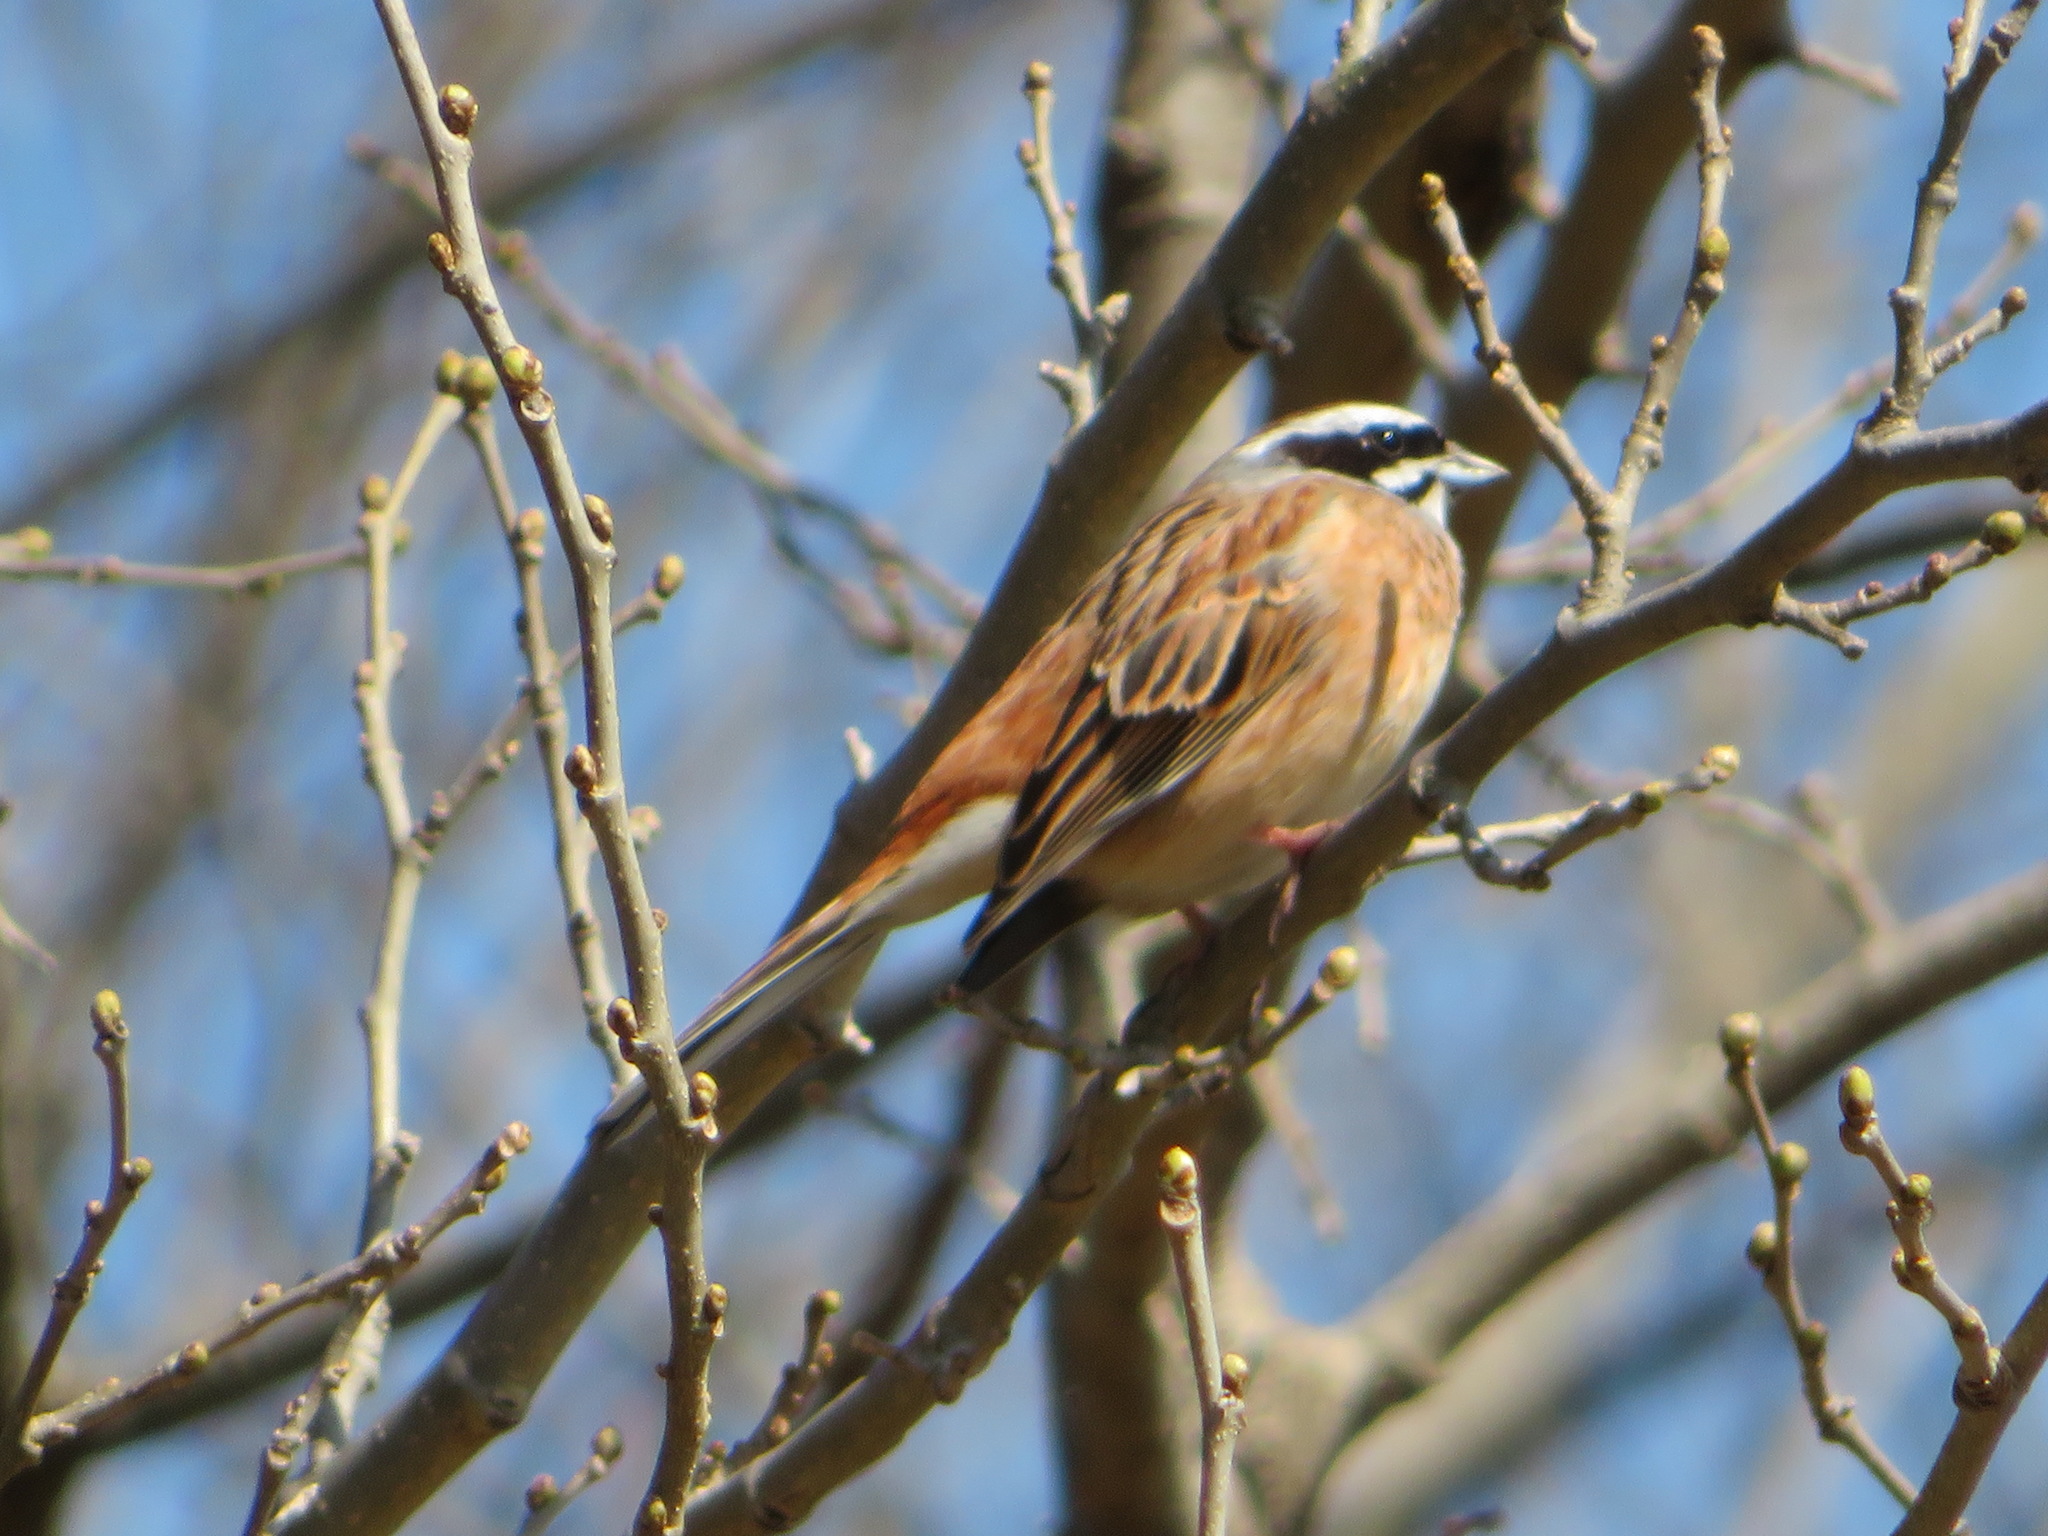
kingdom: Animalia
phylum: Chordata
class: Aves
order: Passeriformes
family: Emberizidae
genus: Emberiza
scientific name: Emberiza cioides
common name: Meadow bunting
